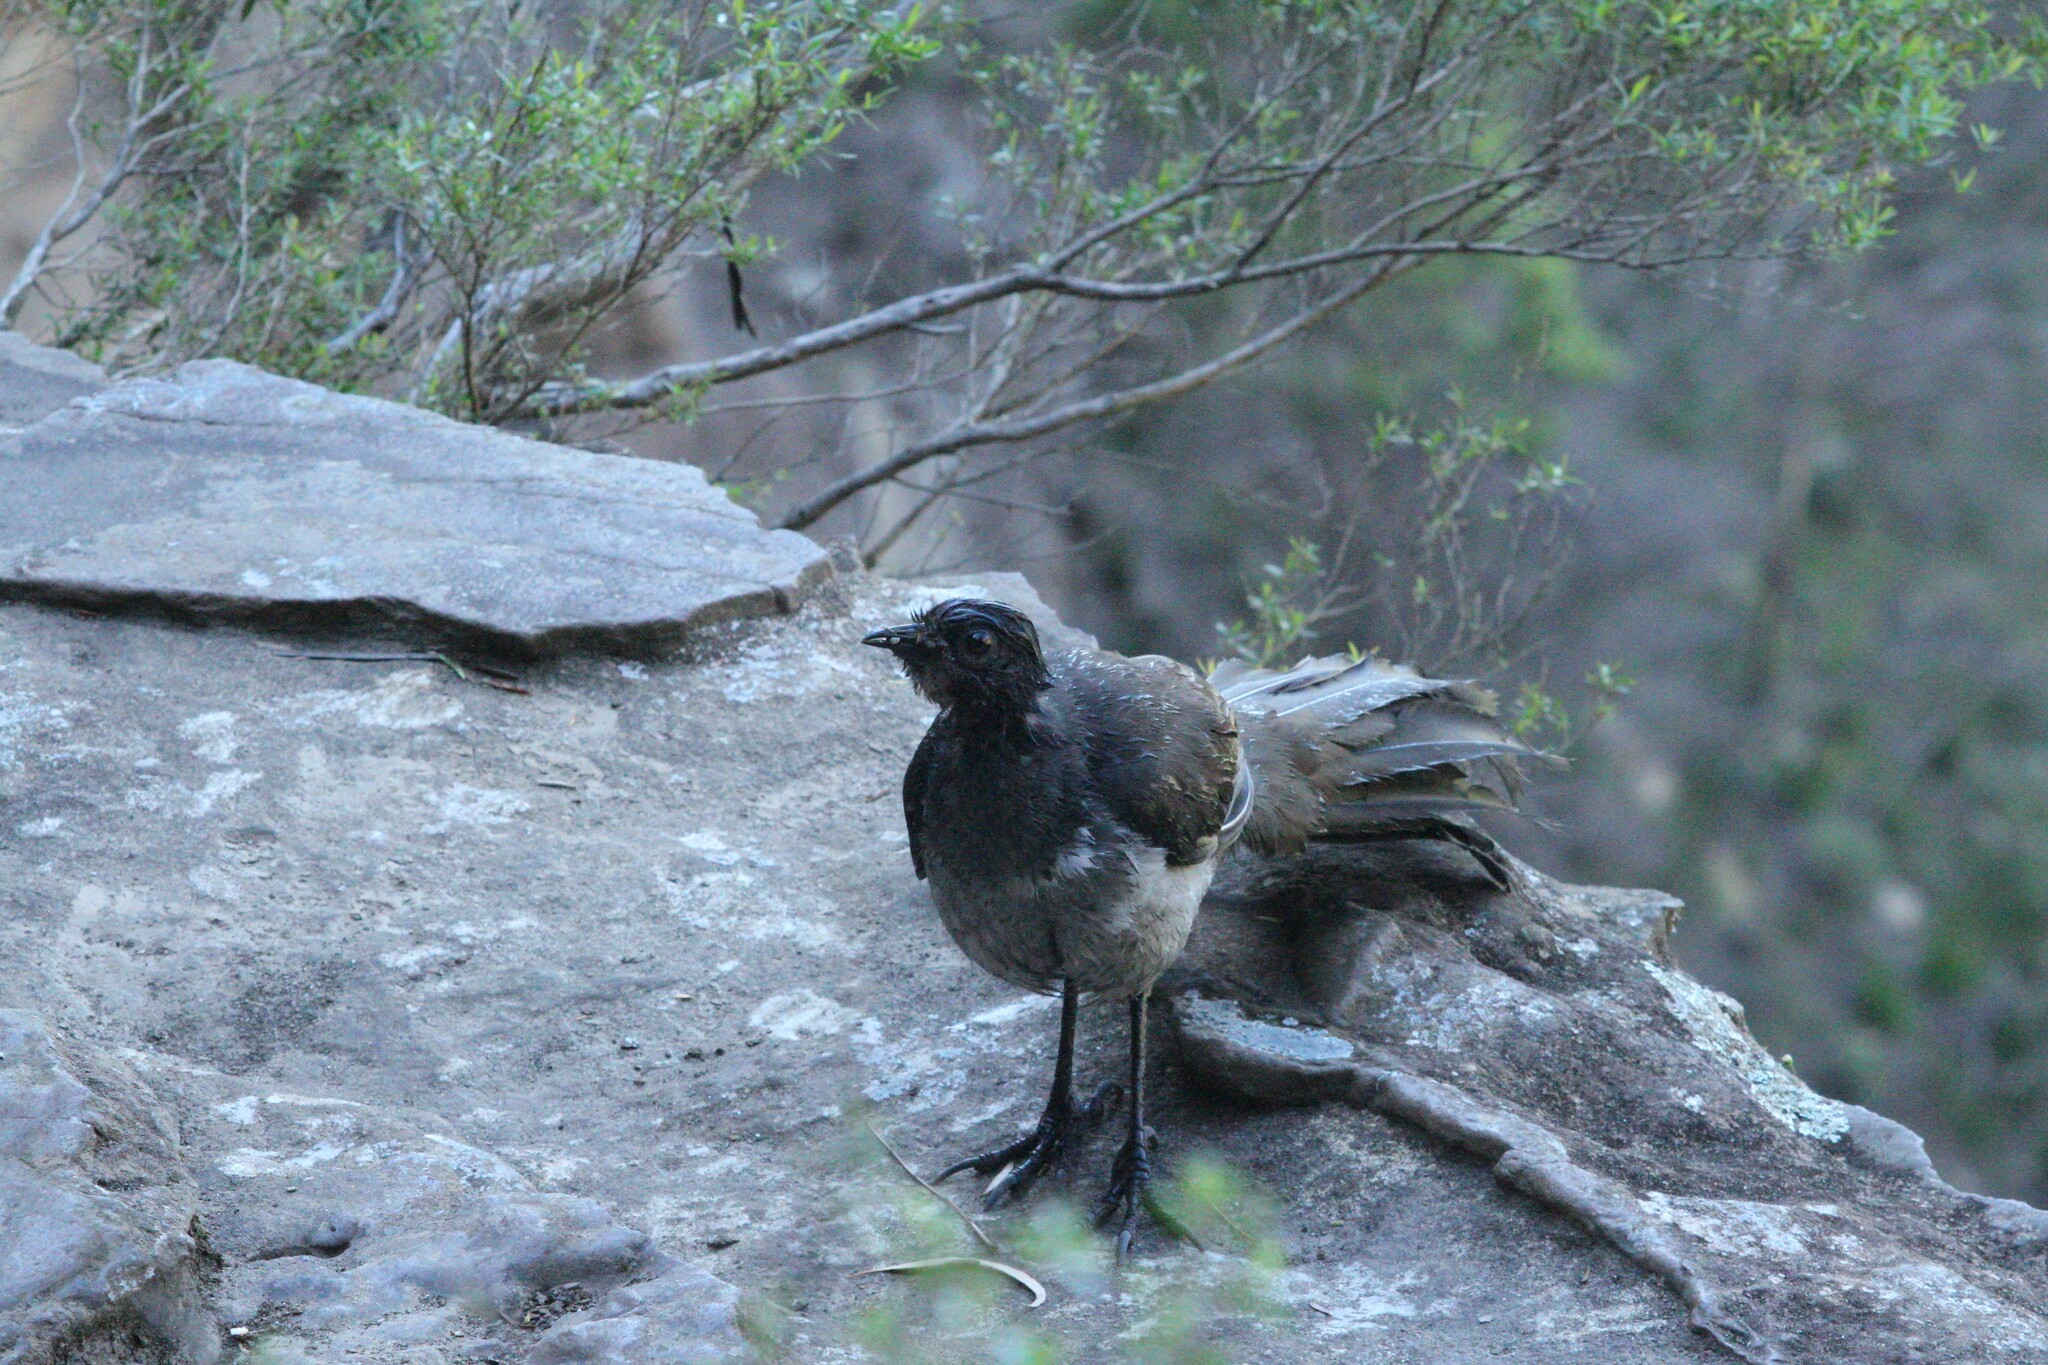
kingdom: Animalia
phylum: Chordata
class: Aves
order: Passeriformes
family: Menuridae
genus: Menura
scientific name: Menura novaehollandiae
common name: Superb lyrebird
